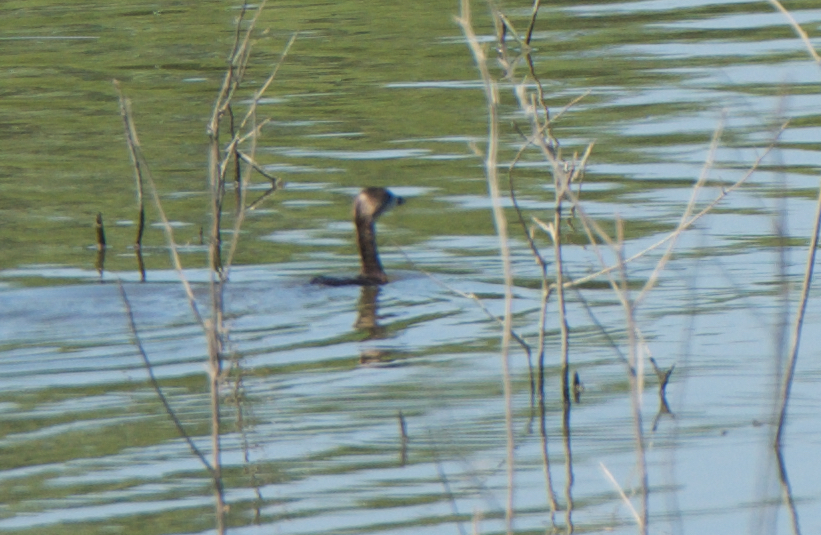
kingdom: Animalia
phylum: Chordata
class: Aves
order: Podicipediformes
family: Podicipedidae
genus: Podilymbus
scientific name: Podilymbus podiceps
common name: Pied-billed grebe
